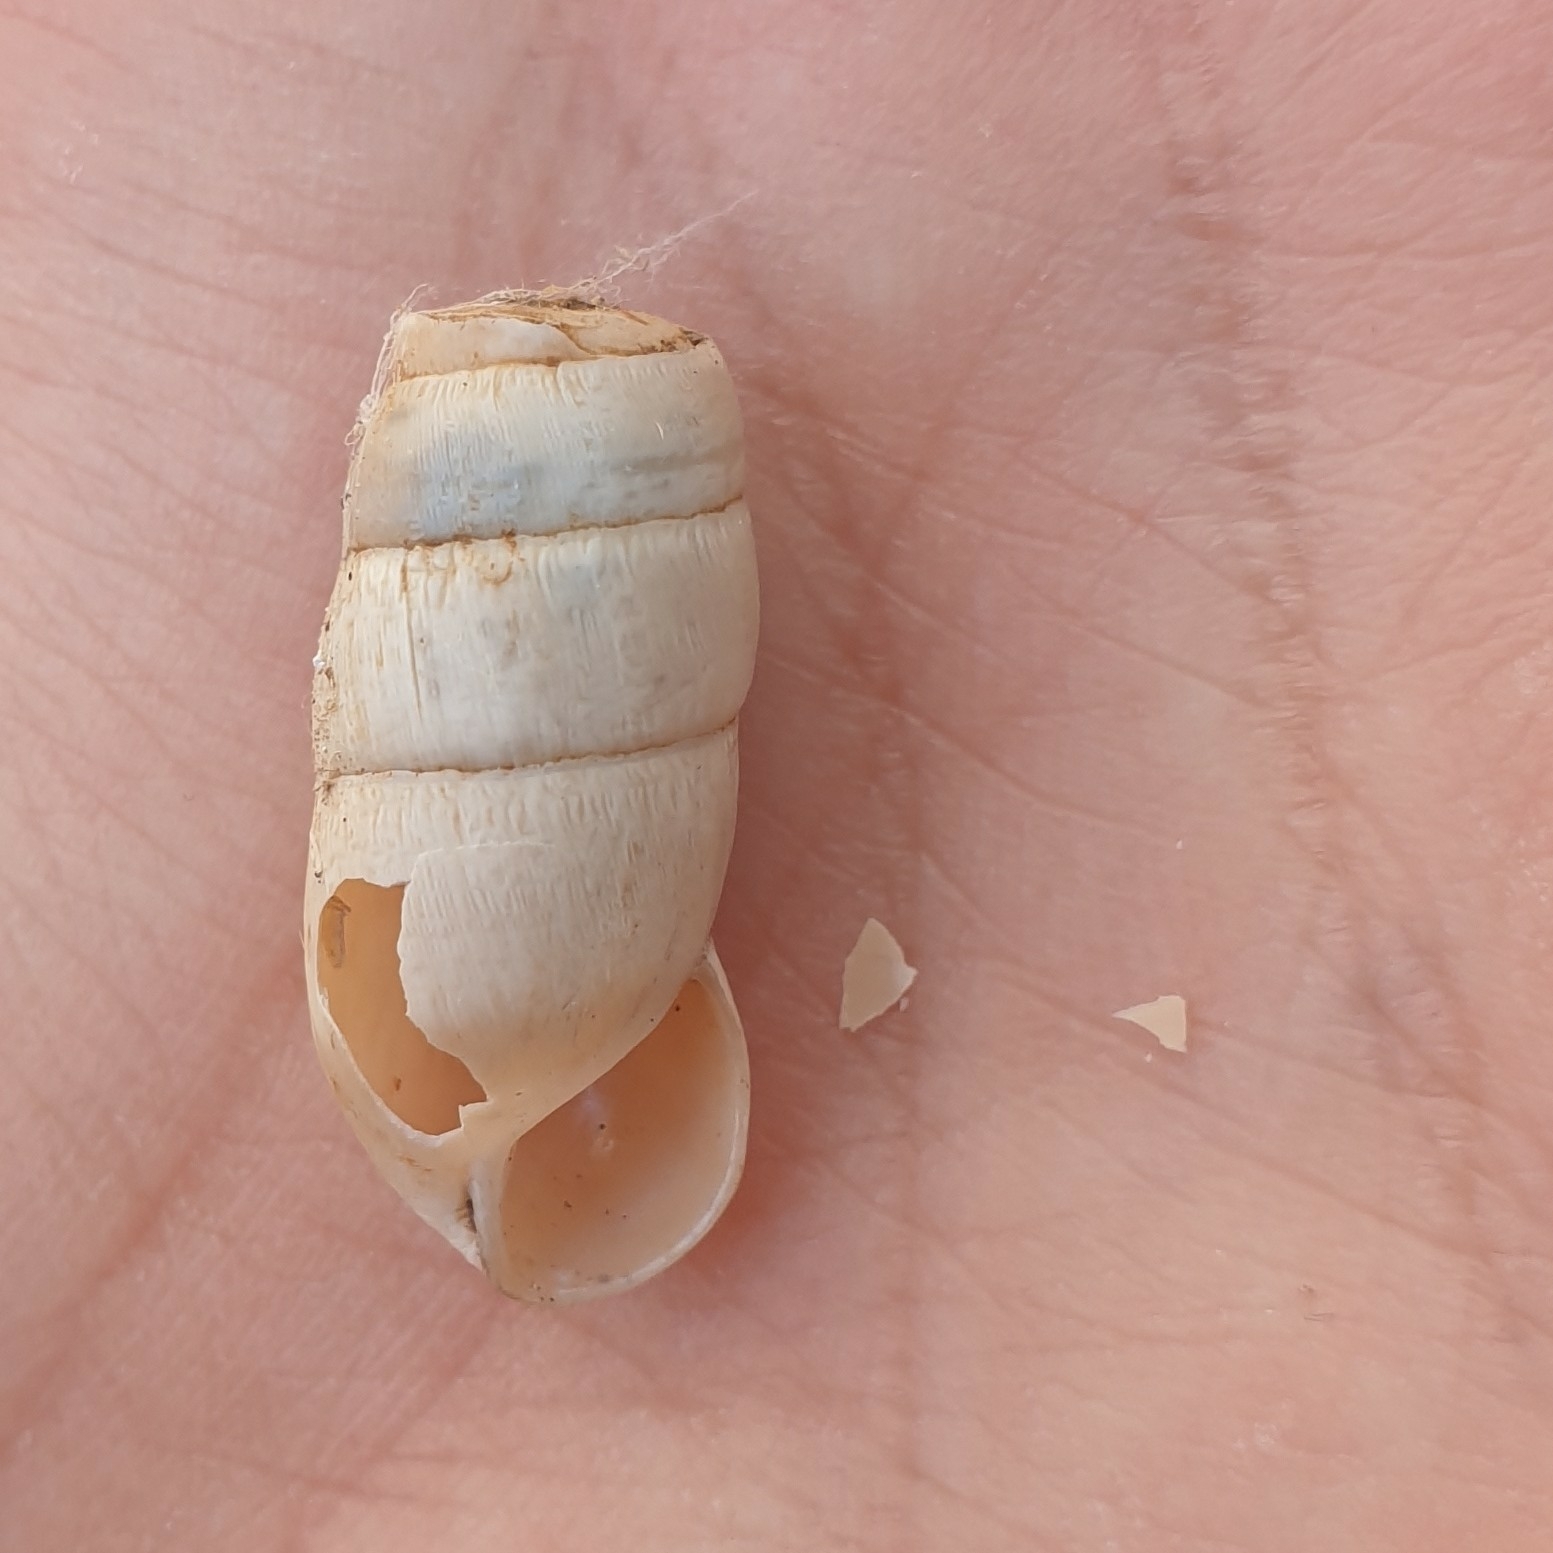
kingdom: Animalia
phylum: Mollusca
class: Gastropoda
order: Stylommatophora
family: Achatinidae
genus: Rumina
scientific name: Rumina decollata
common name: Decollate snail
